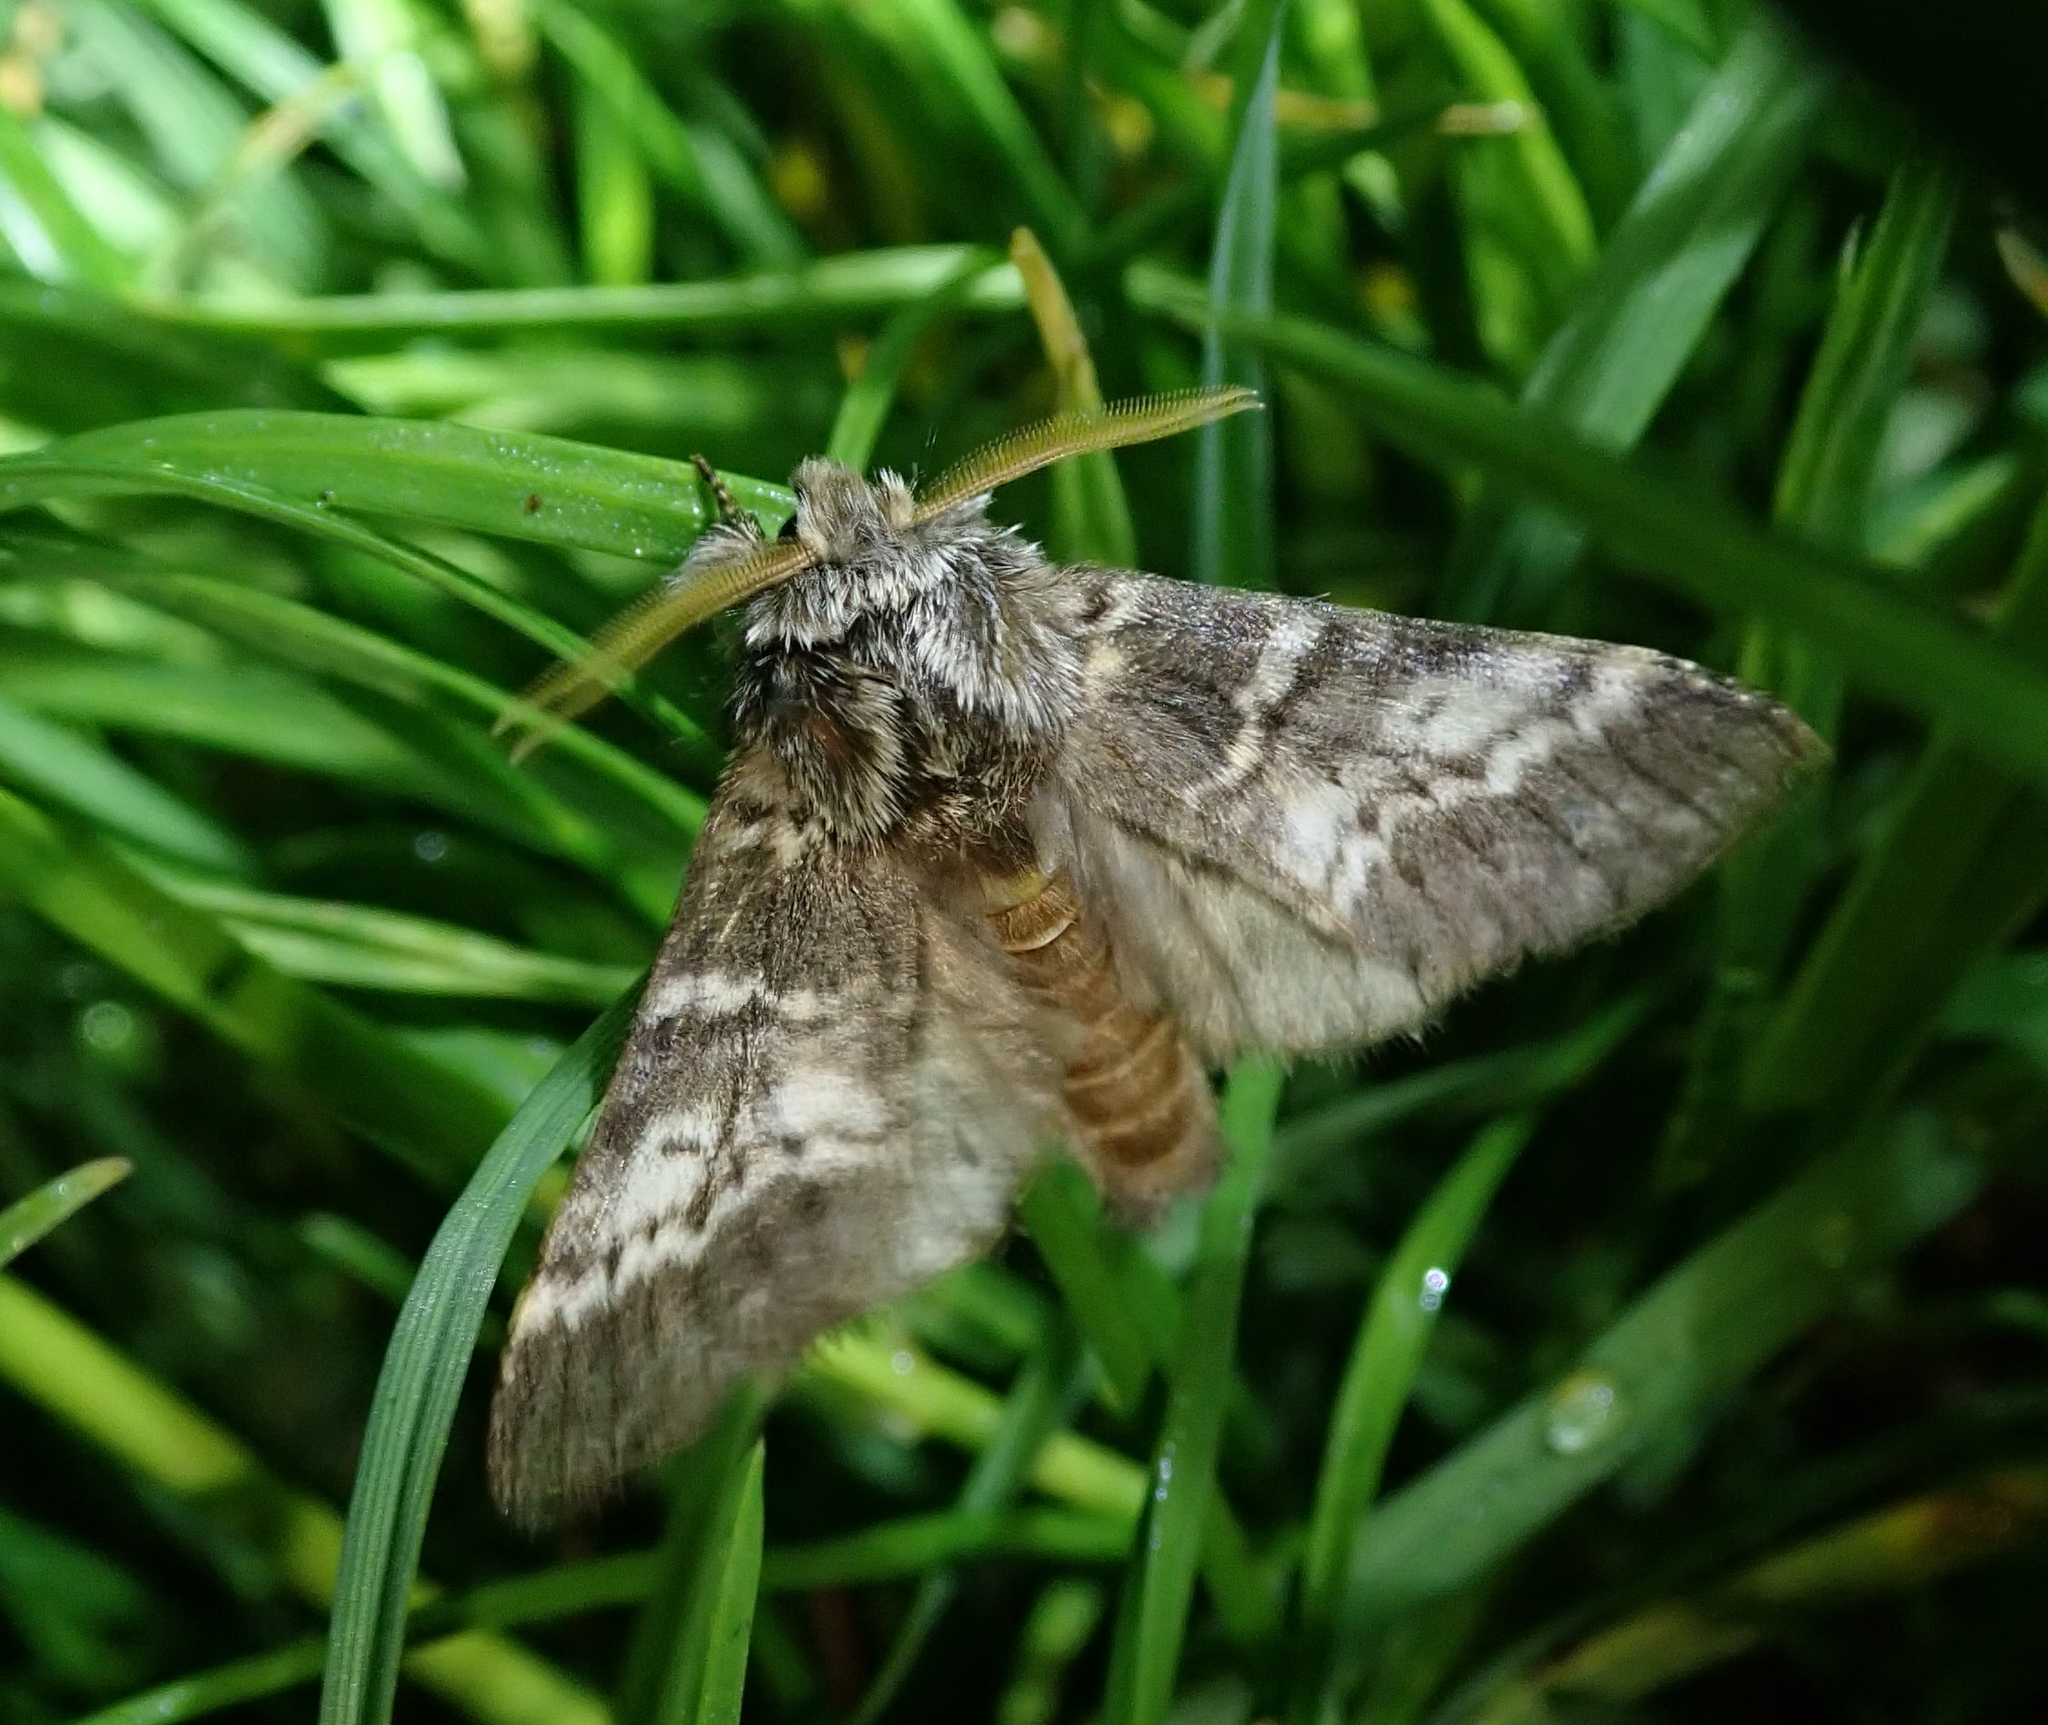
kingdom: Animalia
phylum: Arthropoda
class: Insecta
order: Lepidoptera
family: Notodontidae
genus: Drymonia
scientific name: Drymonia ruficornis
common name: Lunar marbled brown
